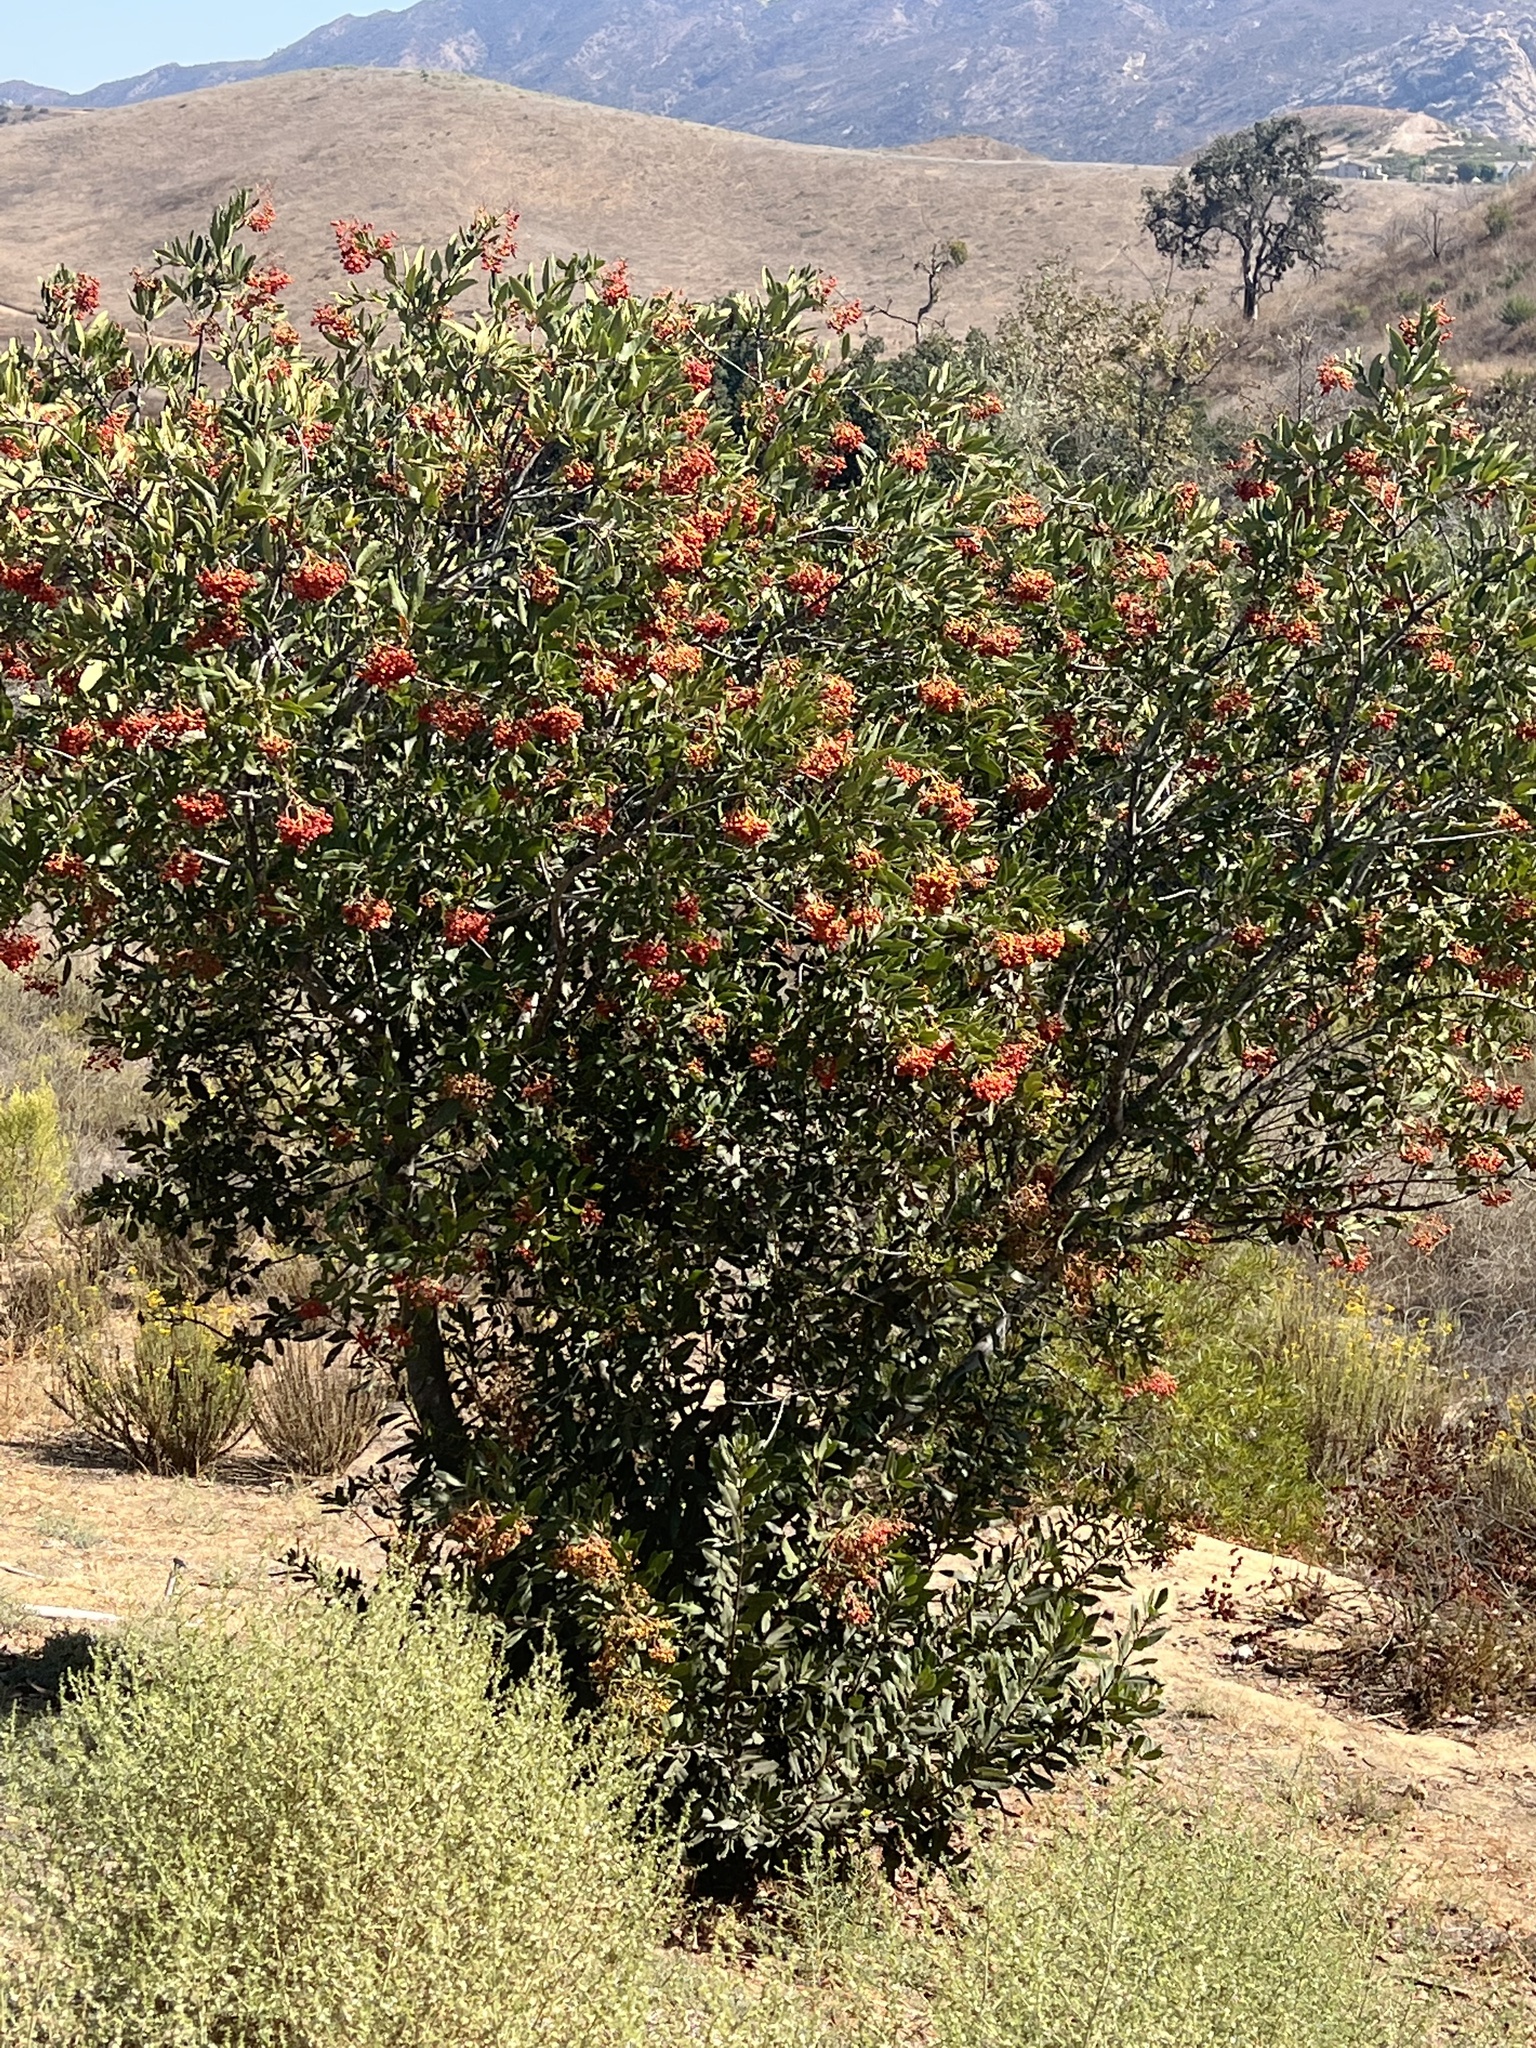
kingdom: Plantae
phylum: Tracheophyta
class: Magnoliopsida
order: Rosales
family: Rosaceae
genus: Heteromeles
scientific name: Heteromeles arbutifolia
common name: California-holly
